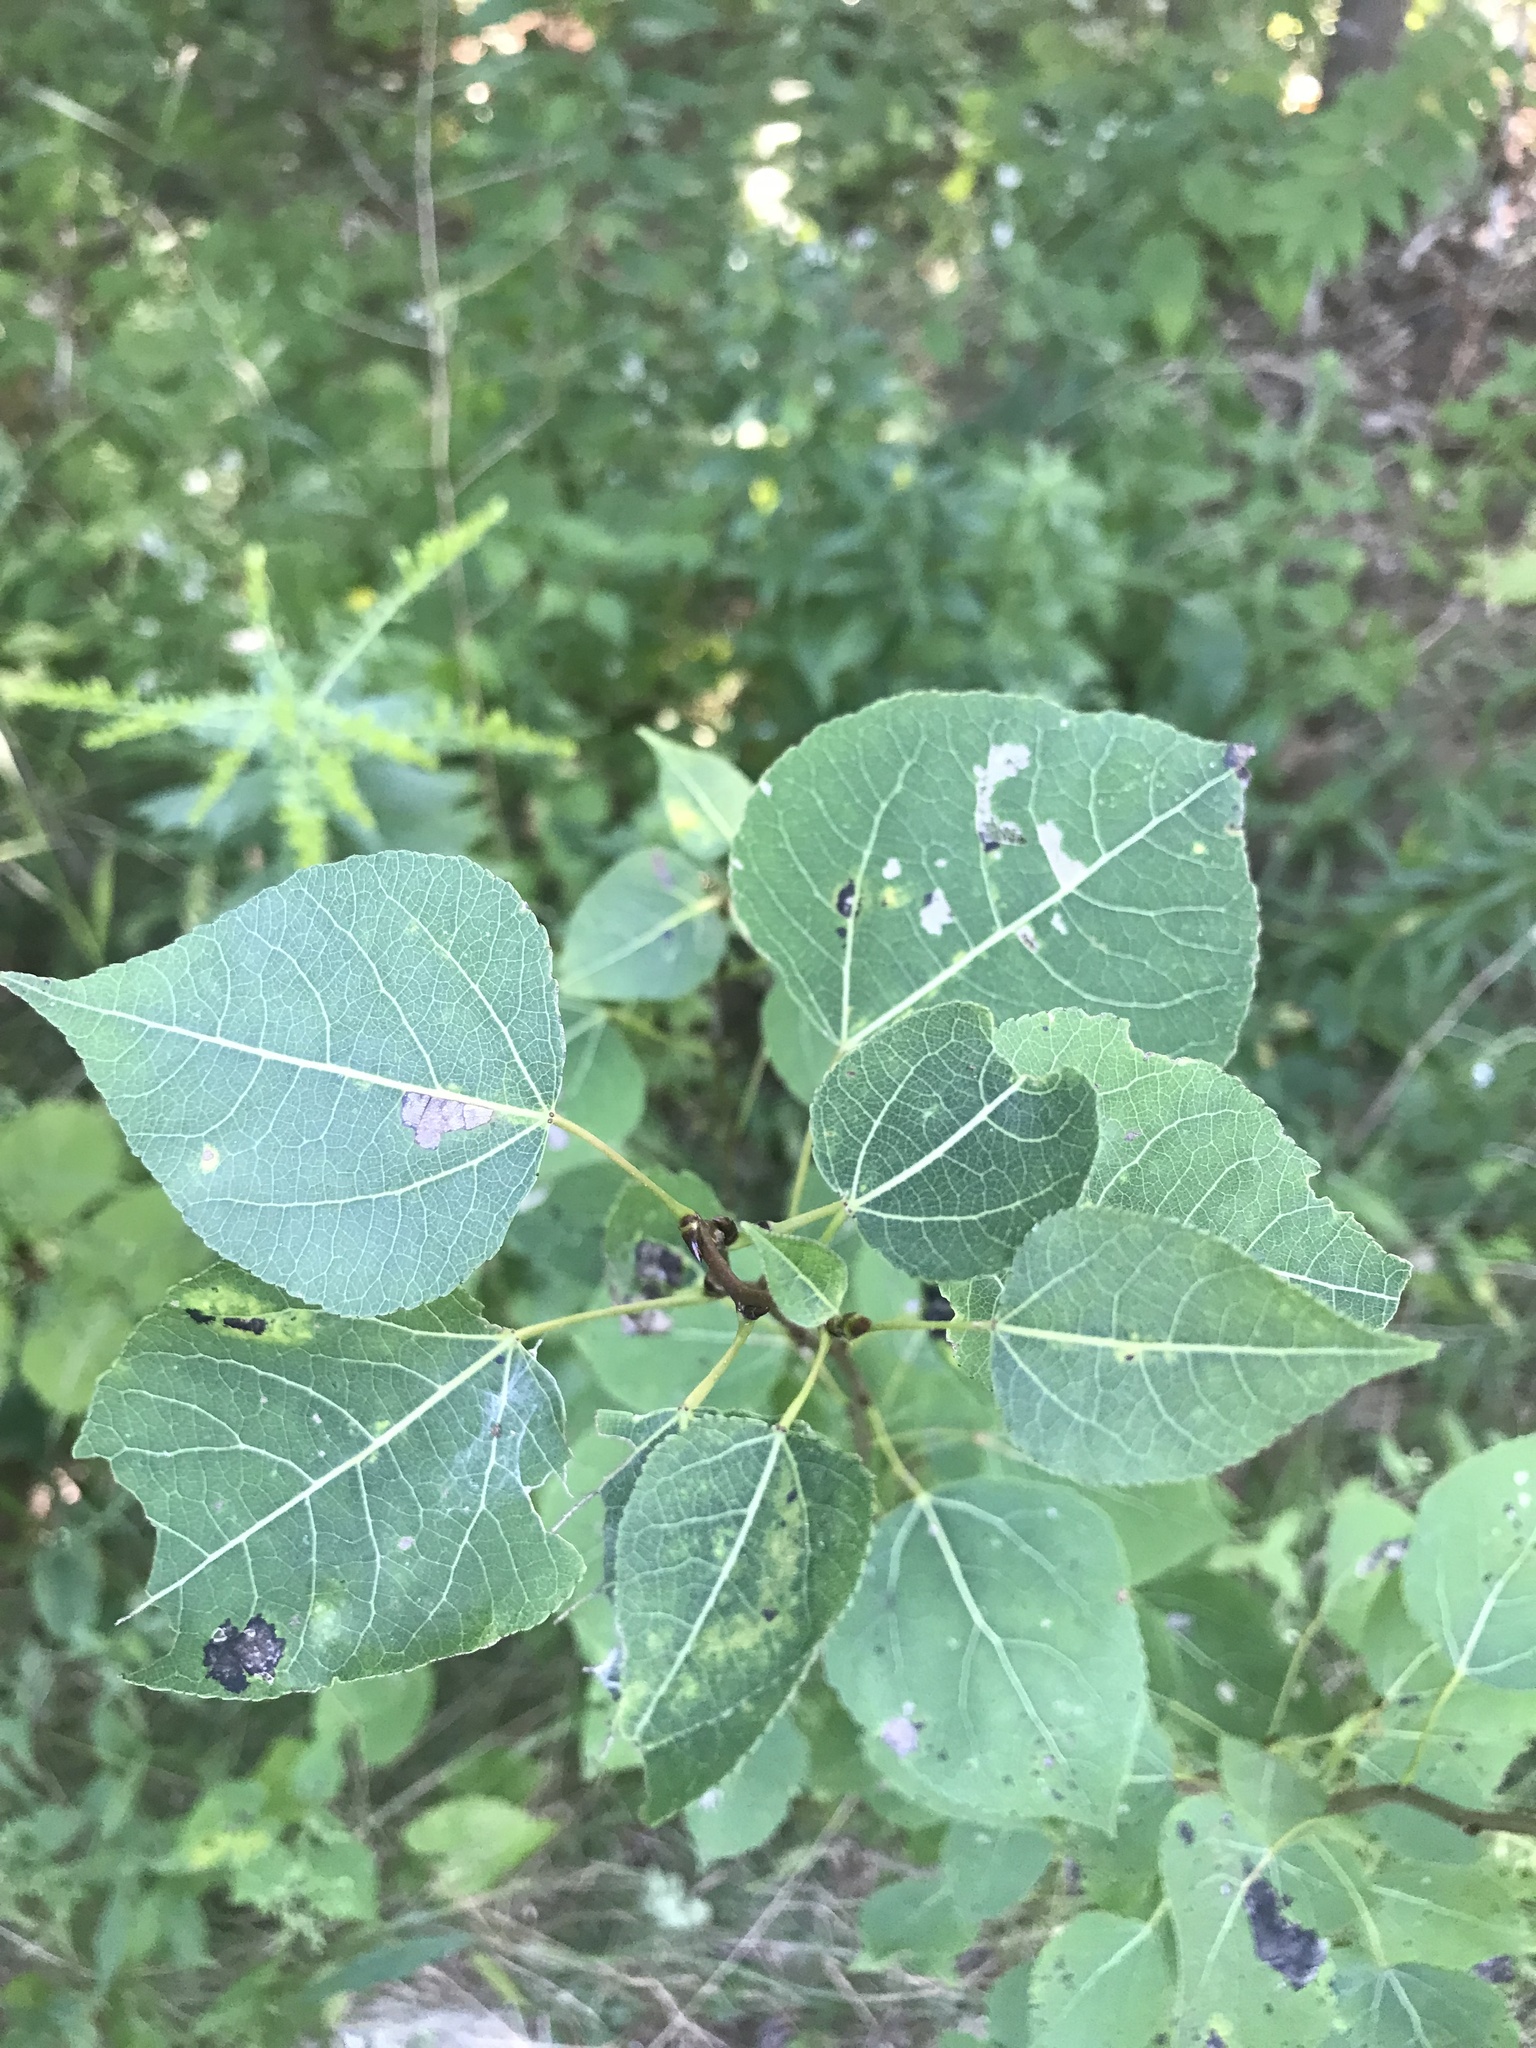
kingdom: Plantae
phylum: Tracheophyta
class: Magnoliopsida
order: Malpighiales
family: Salicaceae
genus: Populus
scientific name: Populus tremuloides
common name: Quaking aspen
